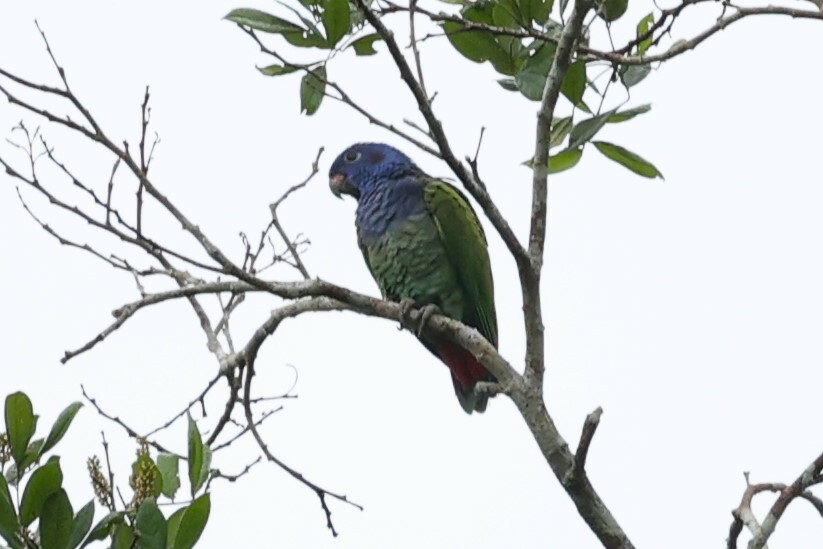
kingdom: Animalia
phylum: Chordata
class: Aves
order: Psittaciformes
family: Psittacidae
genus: Pionus
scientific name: Pionus menstruus
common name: Blue-headed parrot
